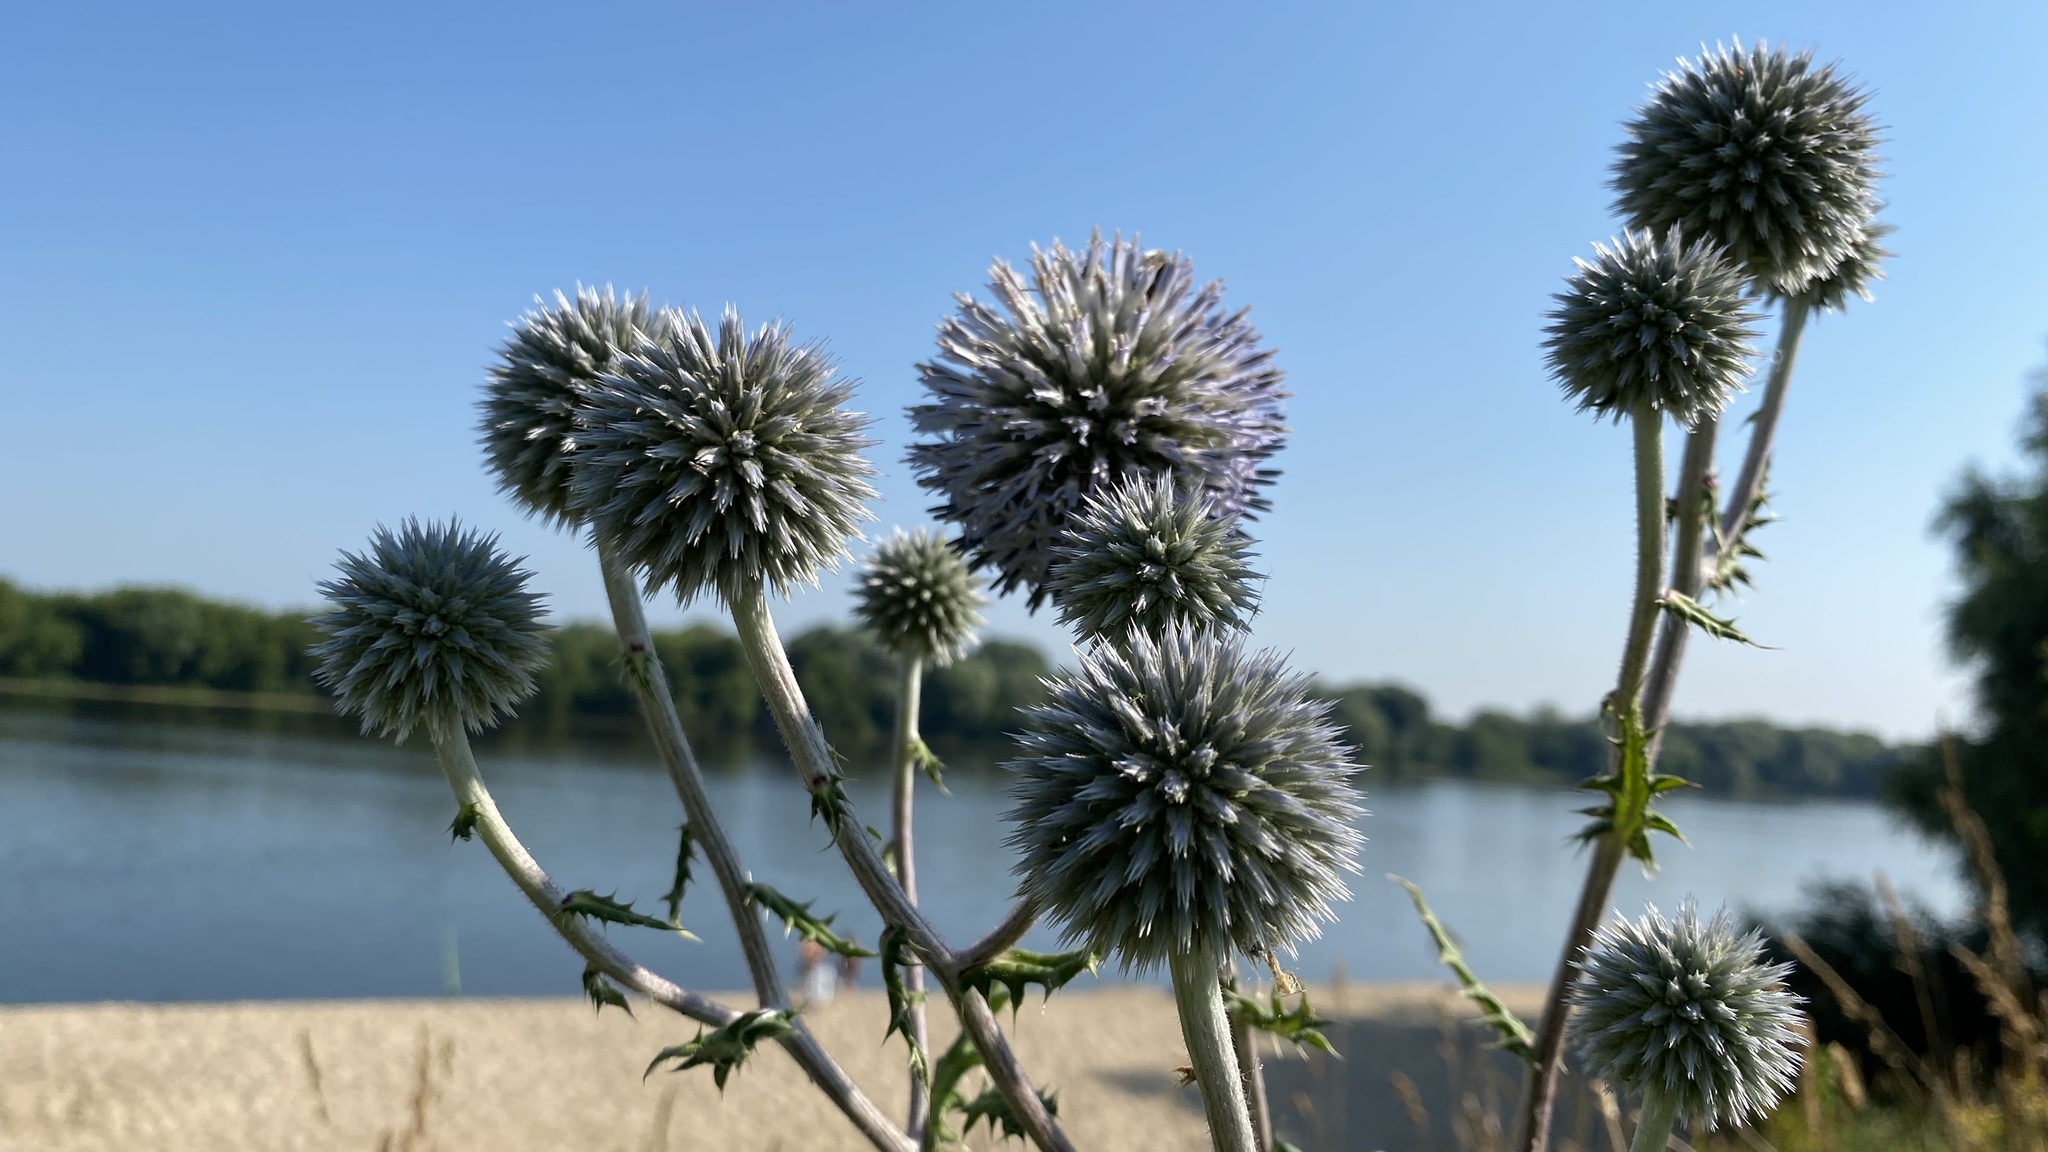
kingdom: Plantae
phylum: Tracheophyta
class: Magnoliopsida
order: Asterales
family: Asteraceae
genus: Echinops
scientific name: Echinops sphaerocephalus
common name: Glandular globe-thistle
